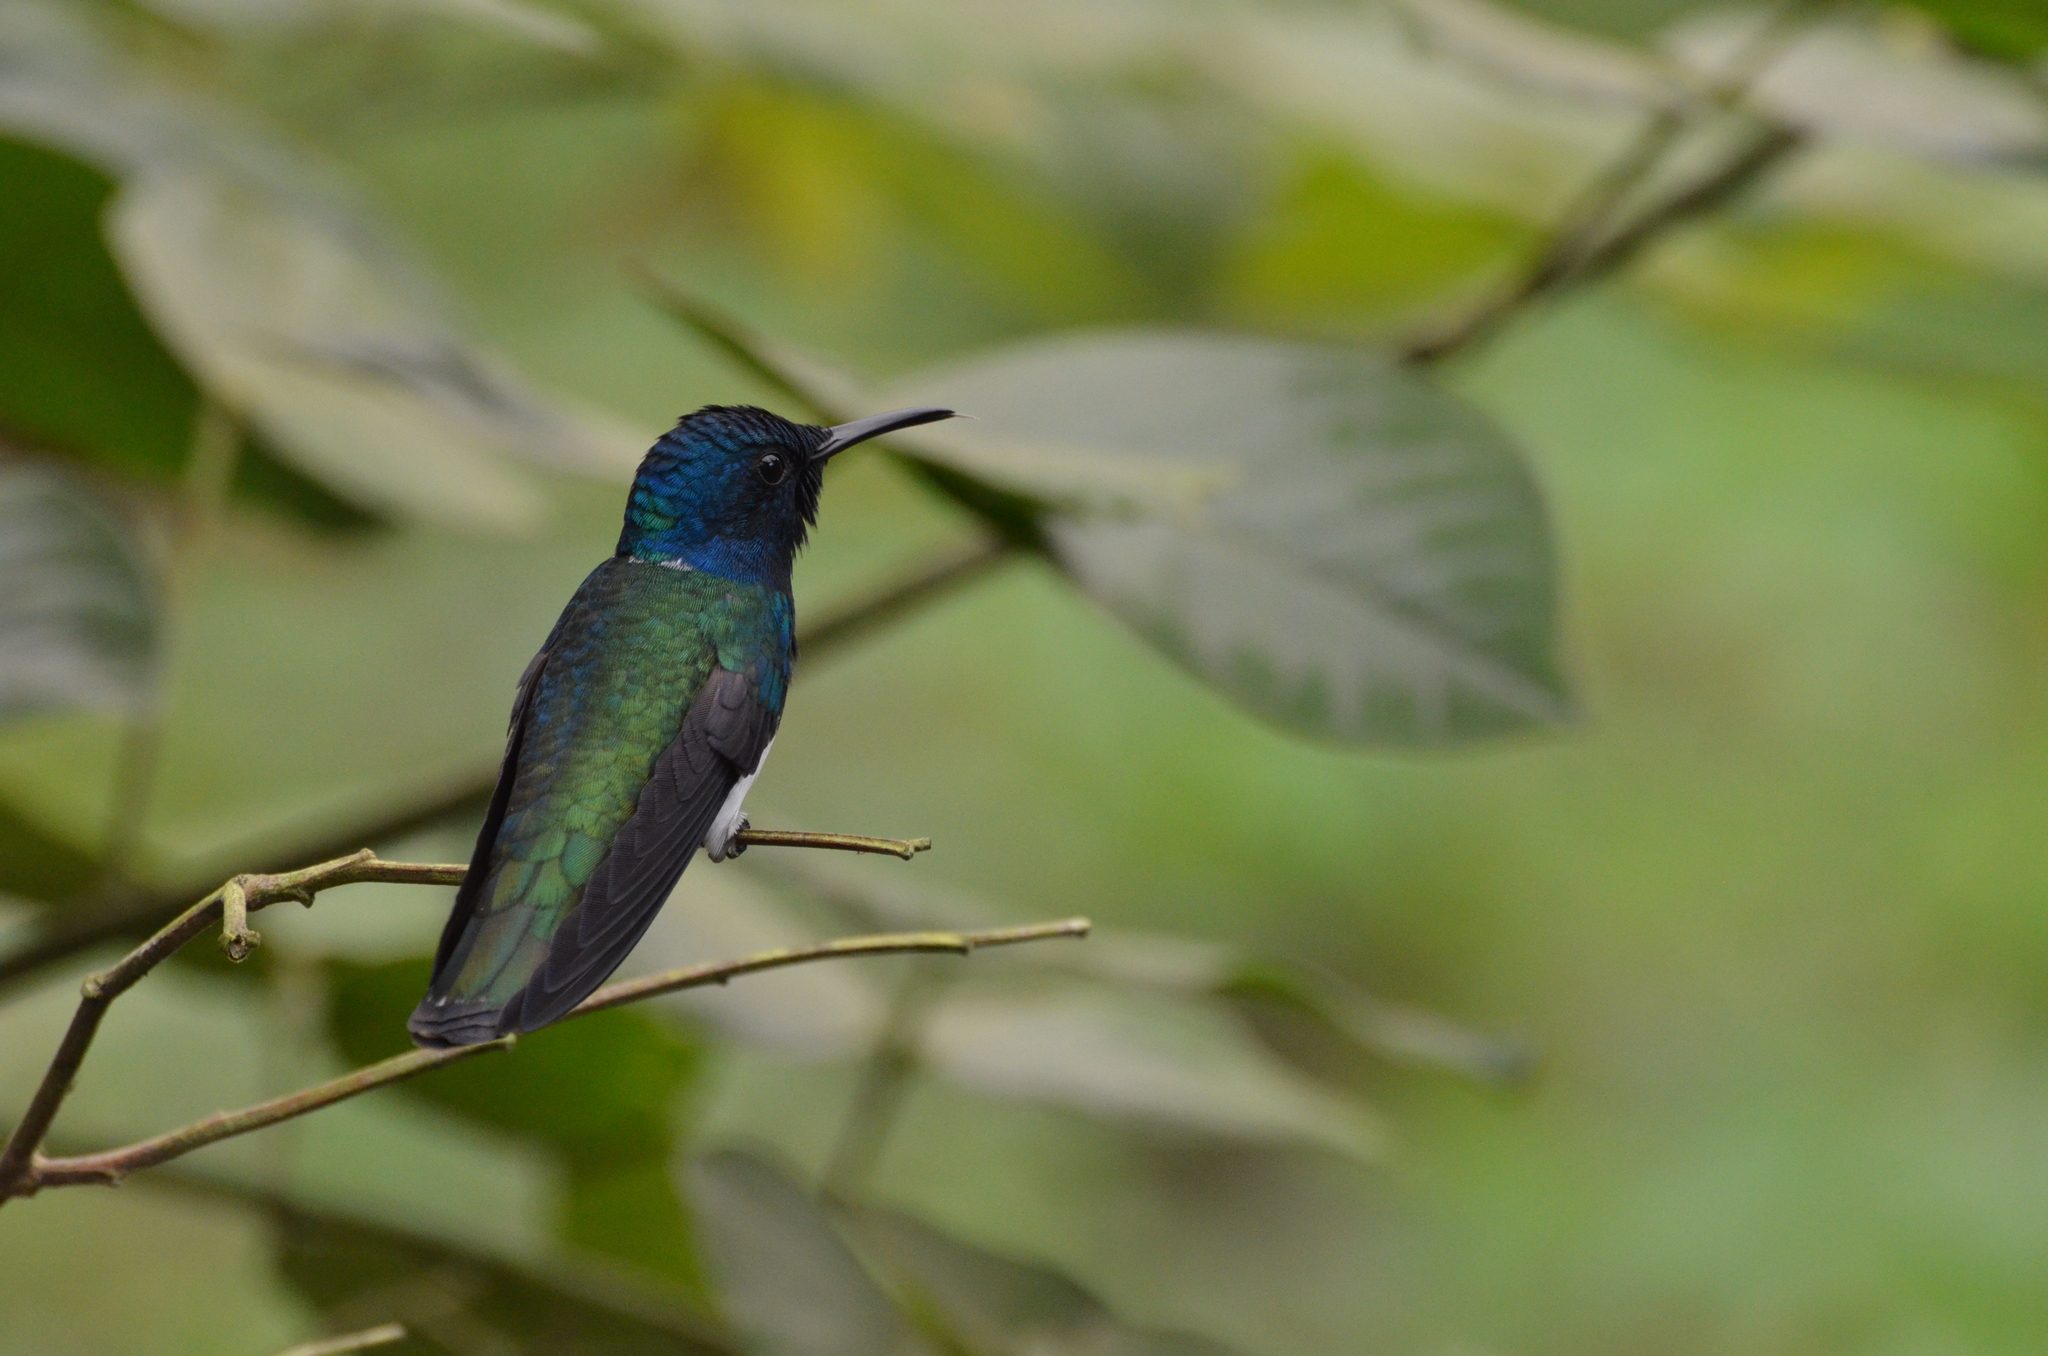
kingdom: Animalia
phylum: Chordata
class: Aves
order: Apodiformes
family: Trochilidae
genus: Florisuga
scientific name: Florisuga mellivora
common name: White-necked jacobin
